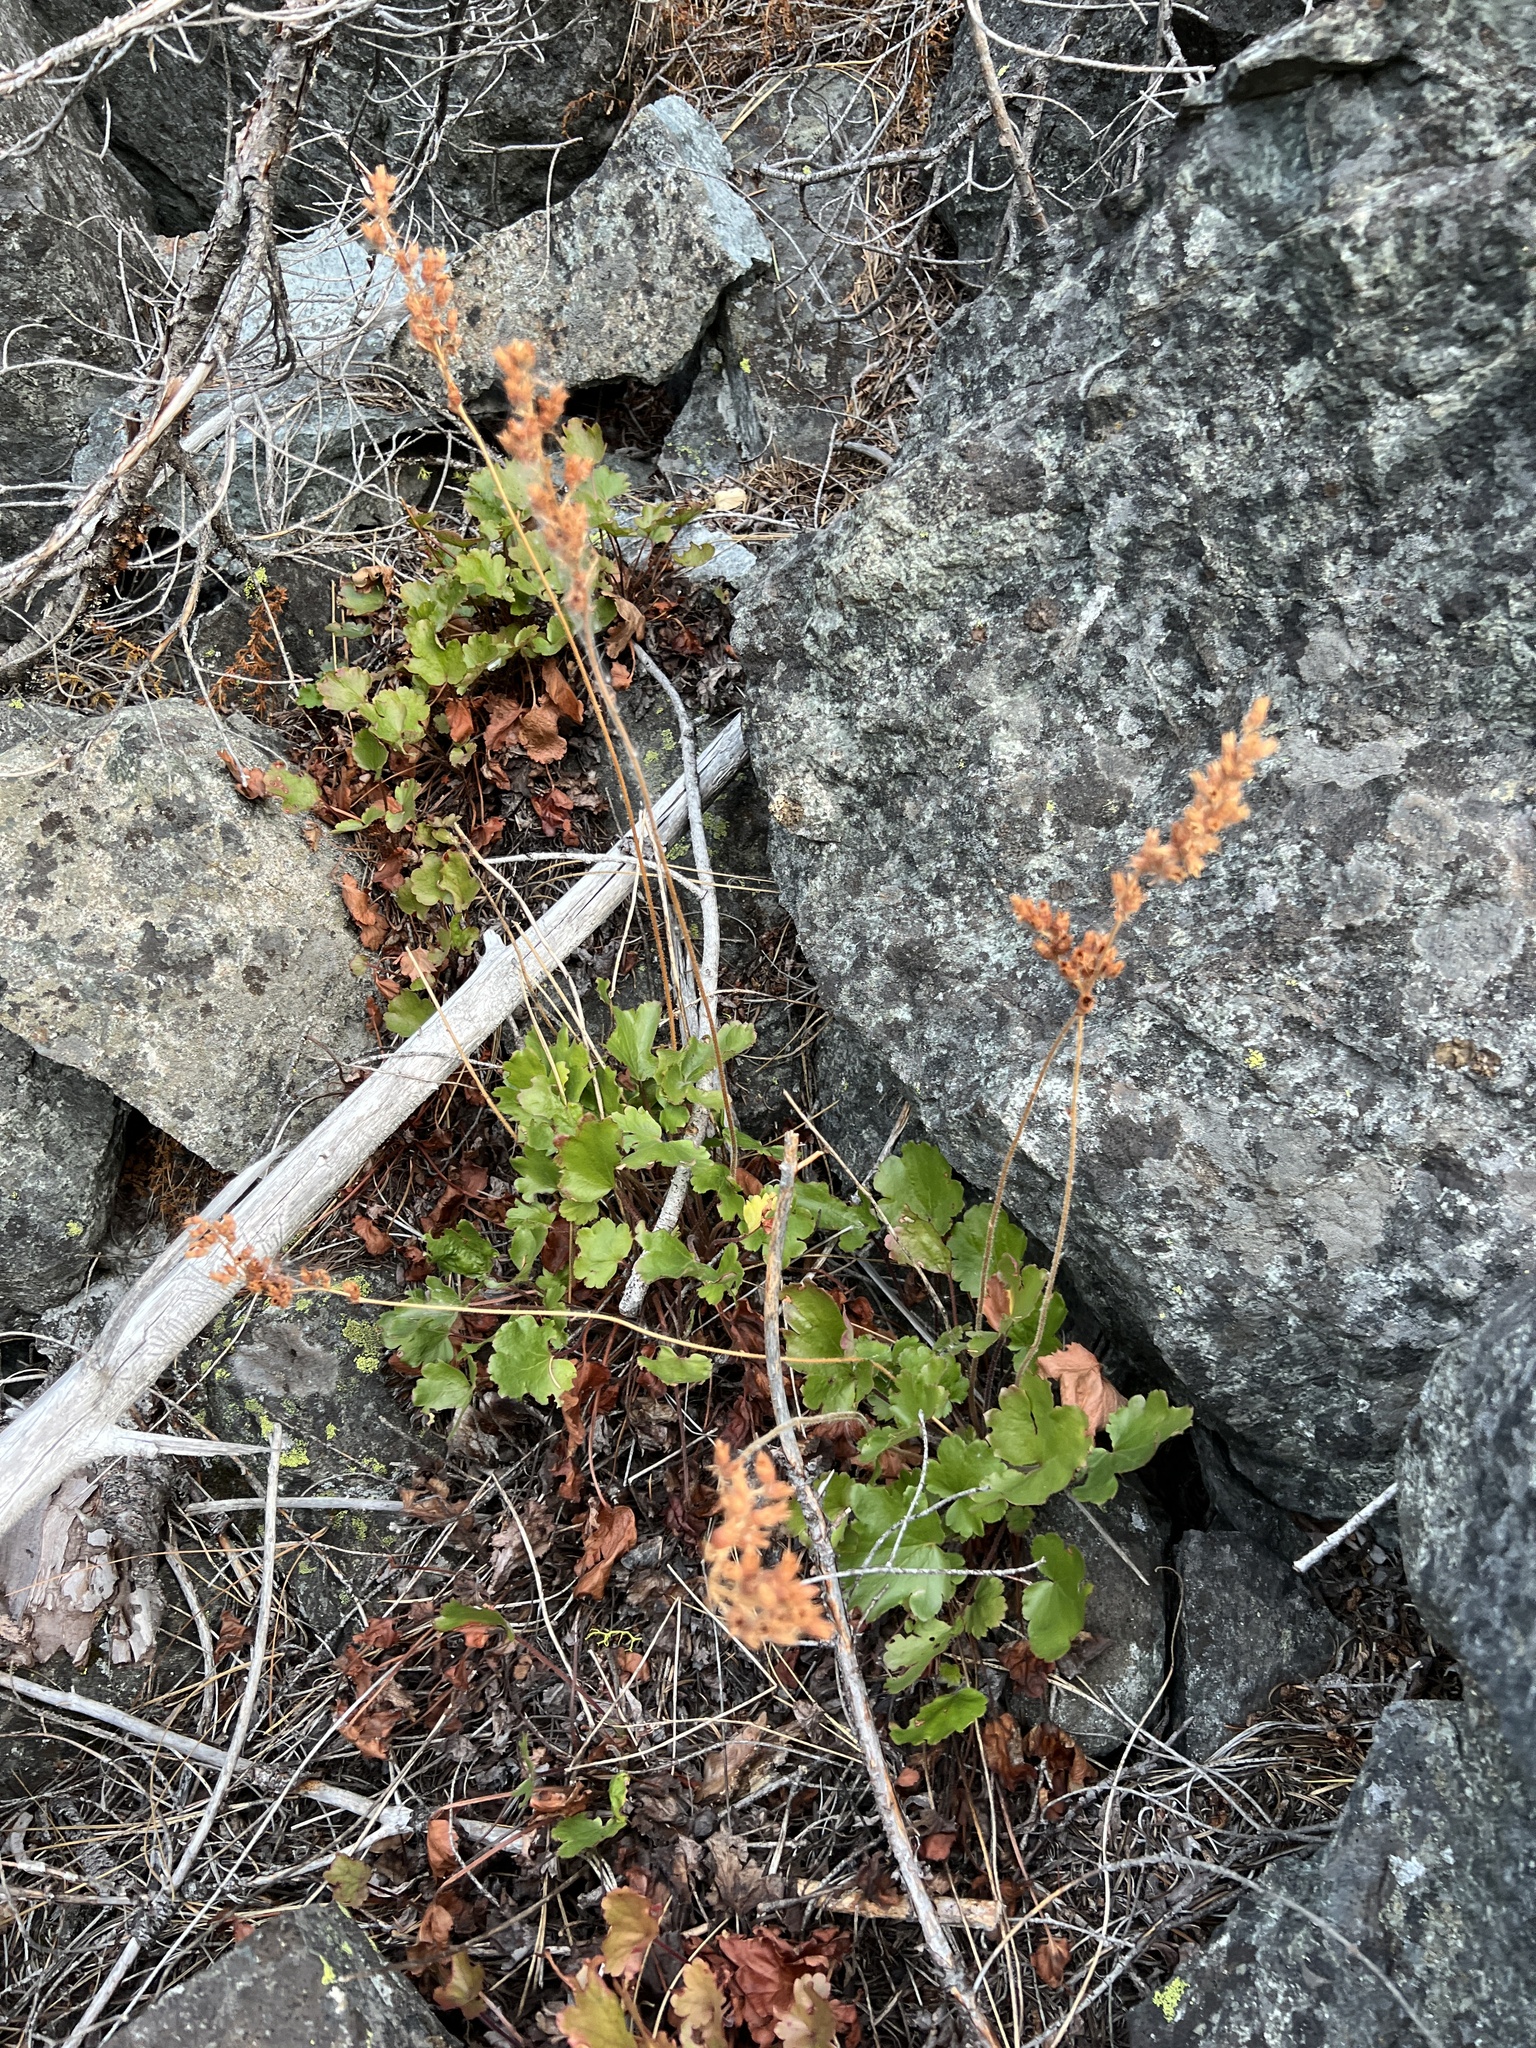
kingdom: Plantae
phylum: Tracheophyta
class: Magnoliopsida
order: Saxifragales
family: Saxifragaceae
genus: Heuchera
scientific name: Heuchera cylindrica
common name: Mat alumroot
